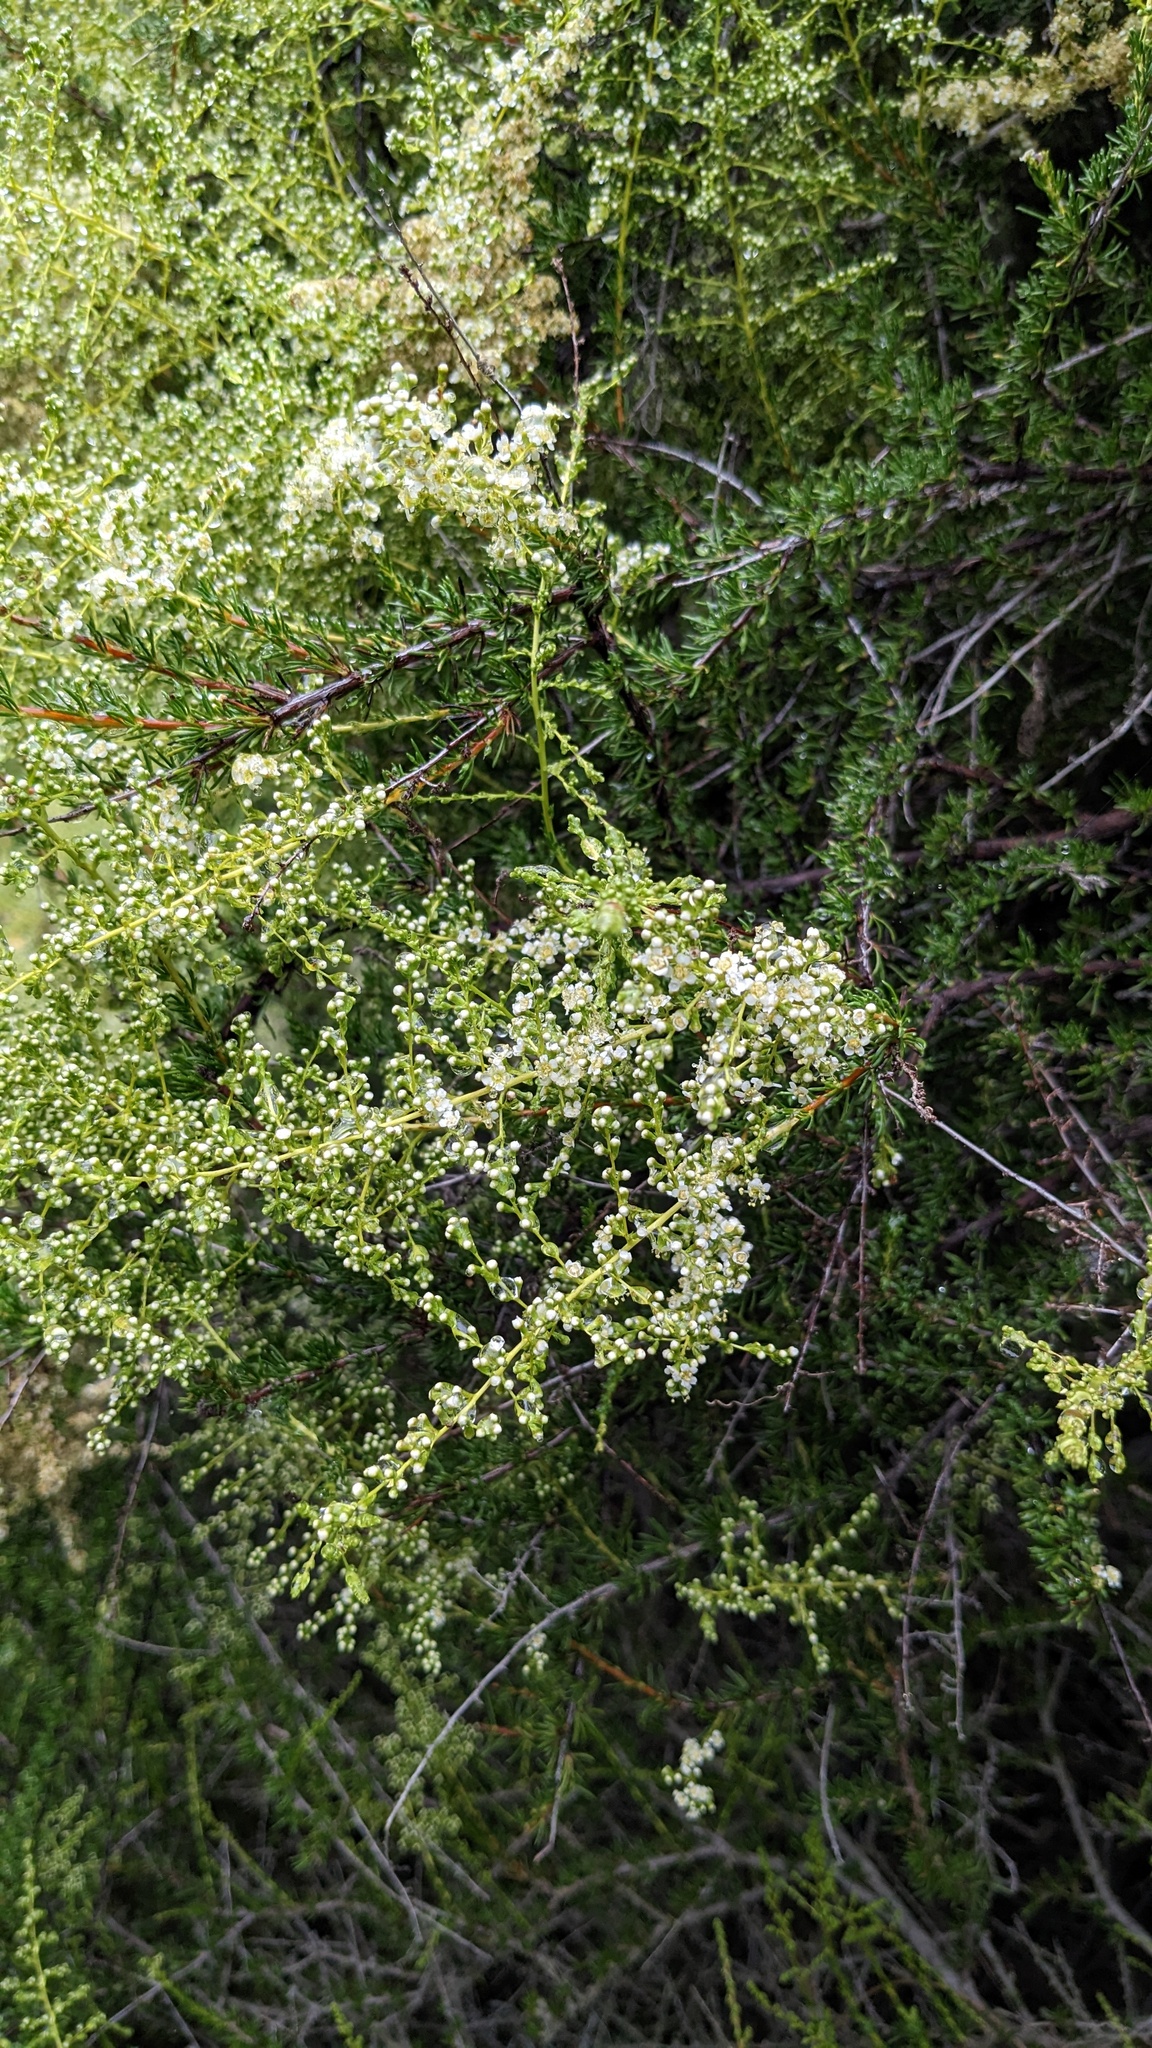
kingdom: Plantae
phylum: Tracheophyta
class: Magnoliopsida
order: Rosales
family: Rosaceae
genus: Adenostoma
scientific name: Adenostoma fasciculatum
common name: Chamise
